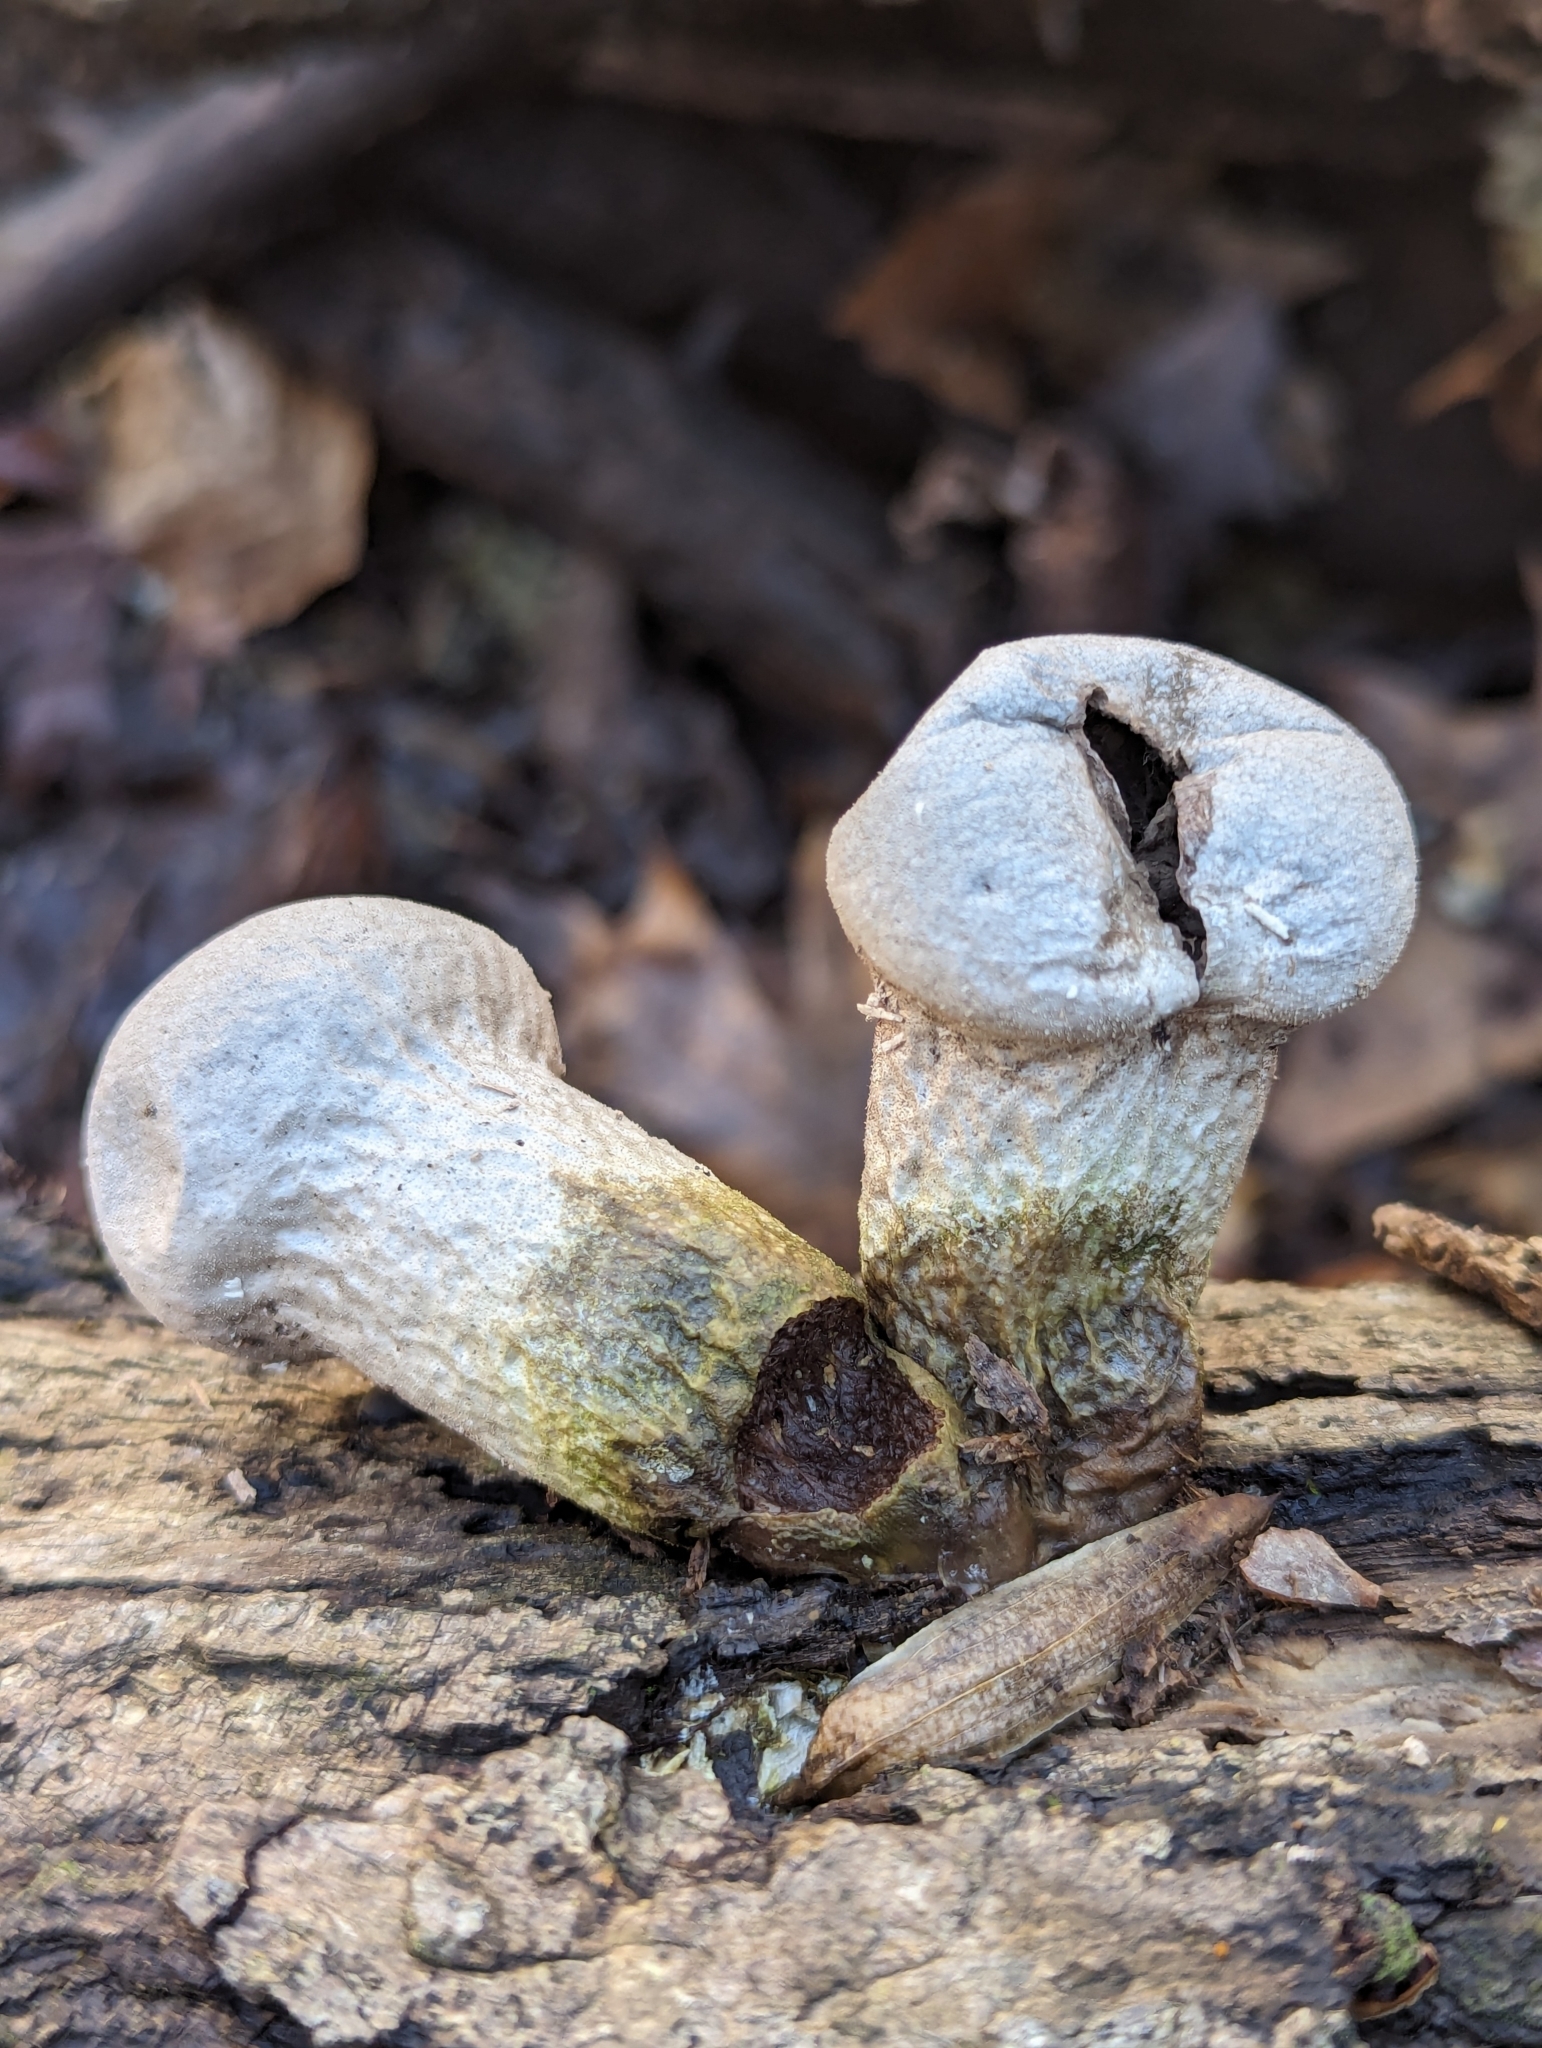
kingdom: Fungi
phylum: Basidiomycota
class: Agaricomycetes
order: Agaricales
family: Lycoperdaceae
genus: Apioperdon
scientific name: Apioperdon pyriforme
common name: Pear-shaped puffball
